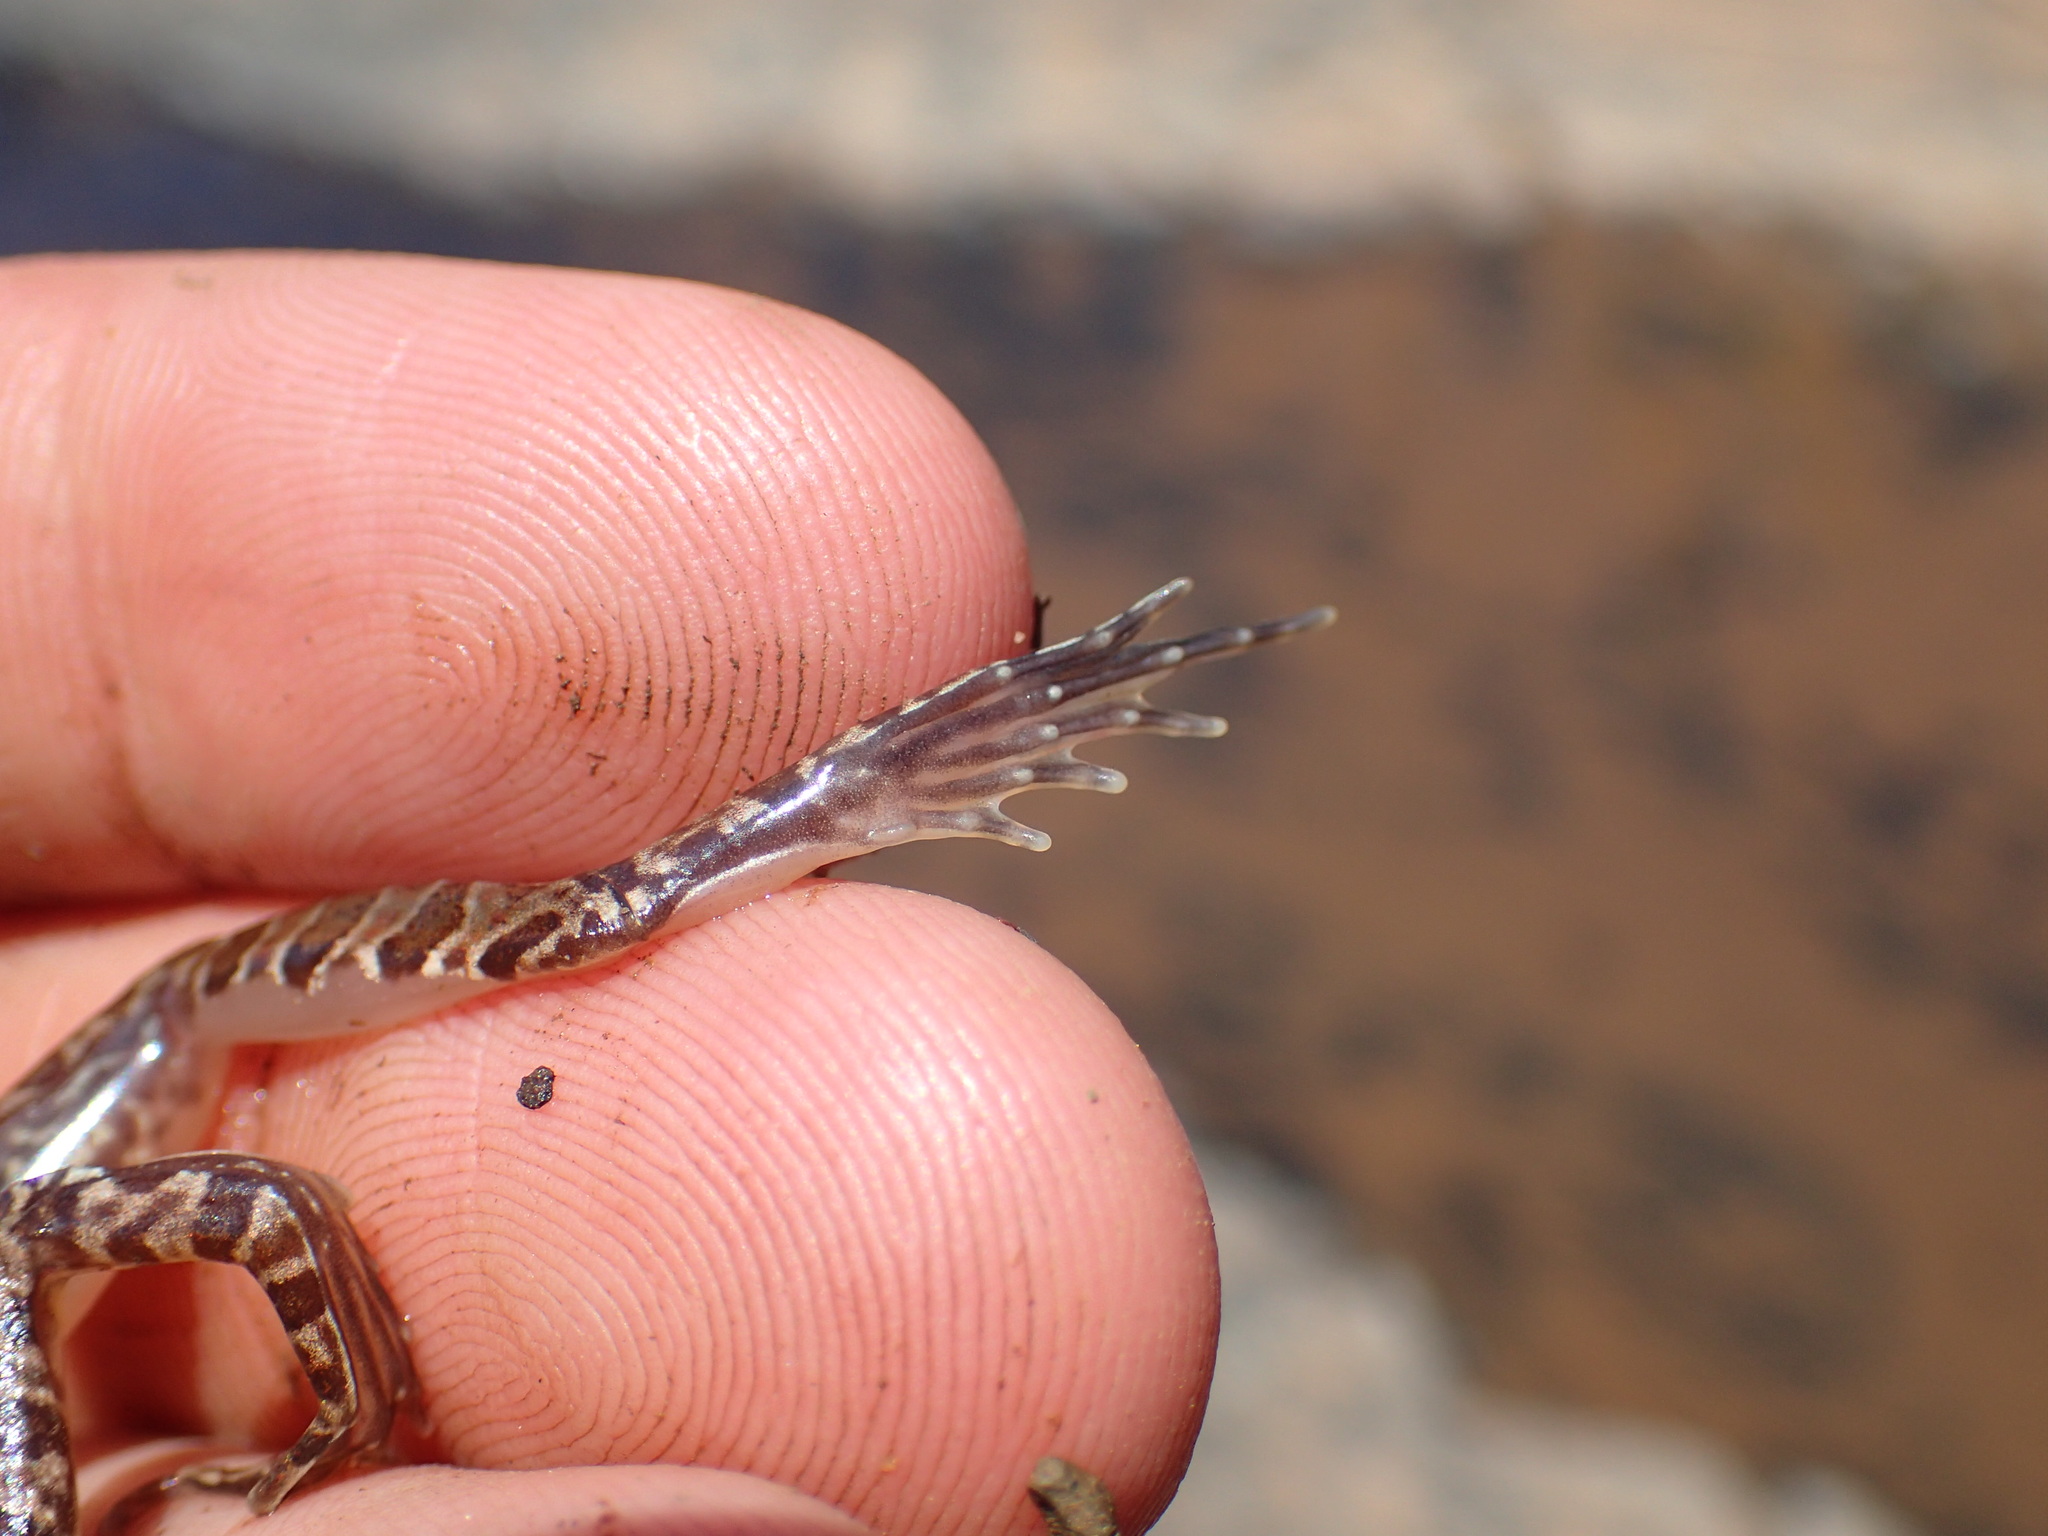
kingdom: Animalia
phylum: Chordata
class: Amphibia
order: Anura
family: Pyxicephalidae
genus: Amietia
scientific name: Amietia delalandii
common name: Delalande's river frog
